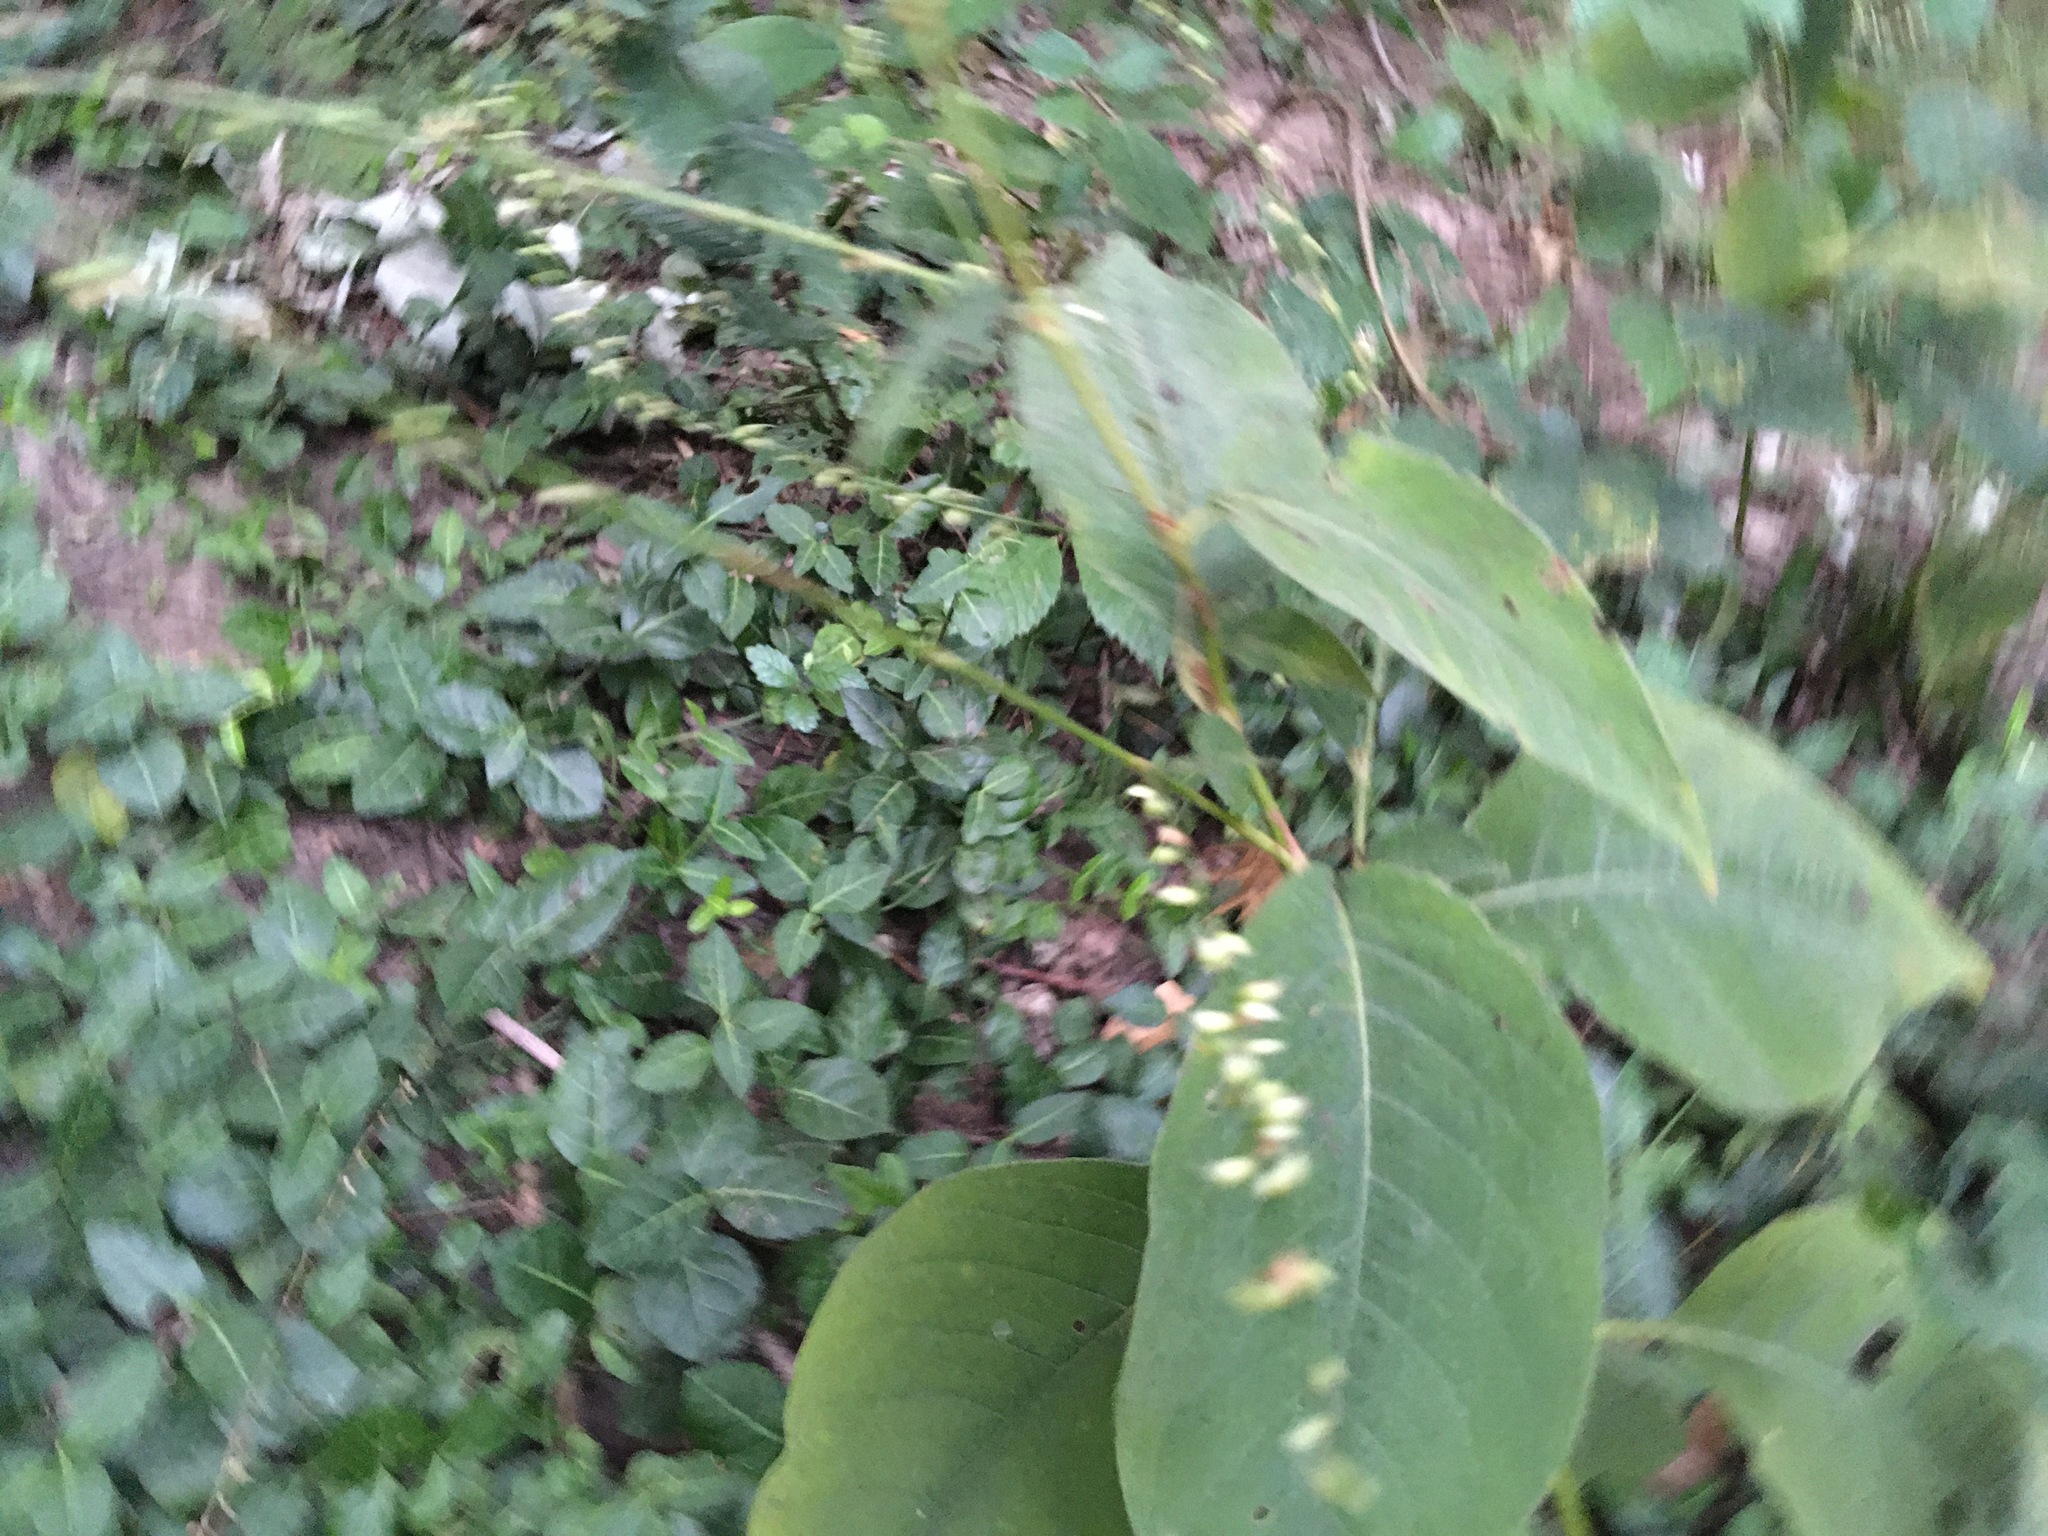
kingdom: Plantae
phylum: Tracheophyta
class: Magnoliopsida
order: Caryophyllales
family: Polygonaceae
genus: Persicaria
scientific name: Persicaria virginiana
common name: Jumpseed
